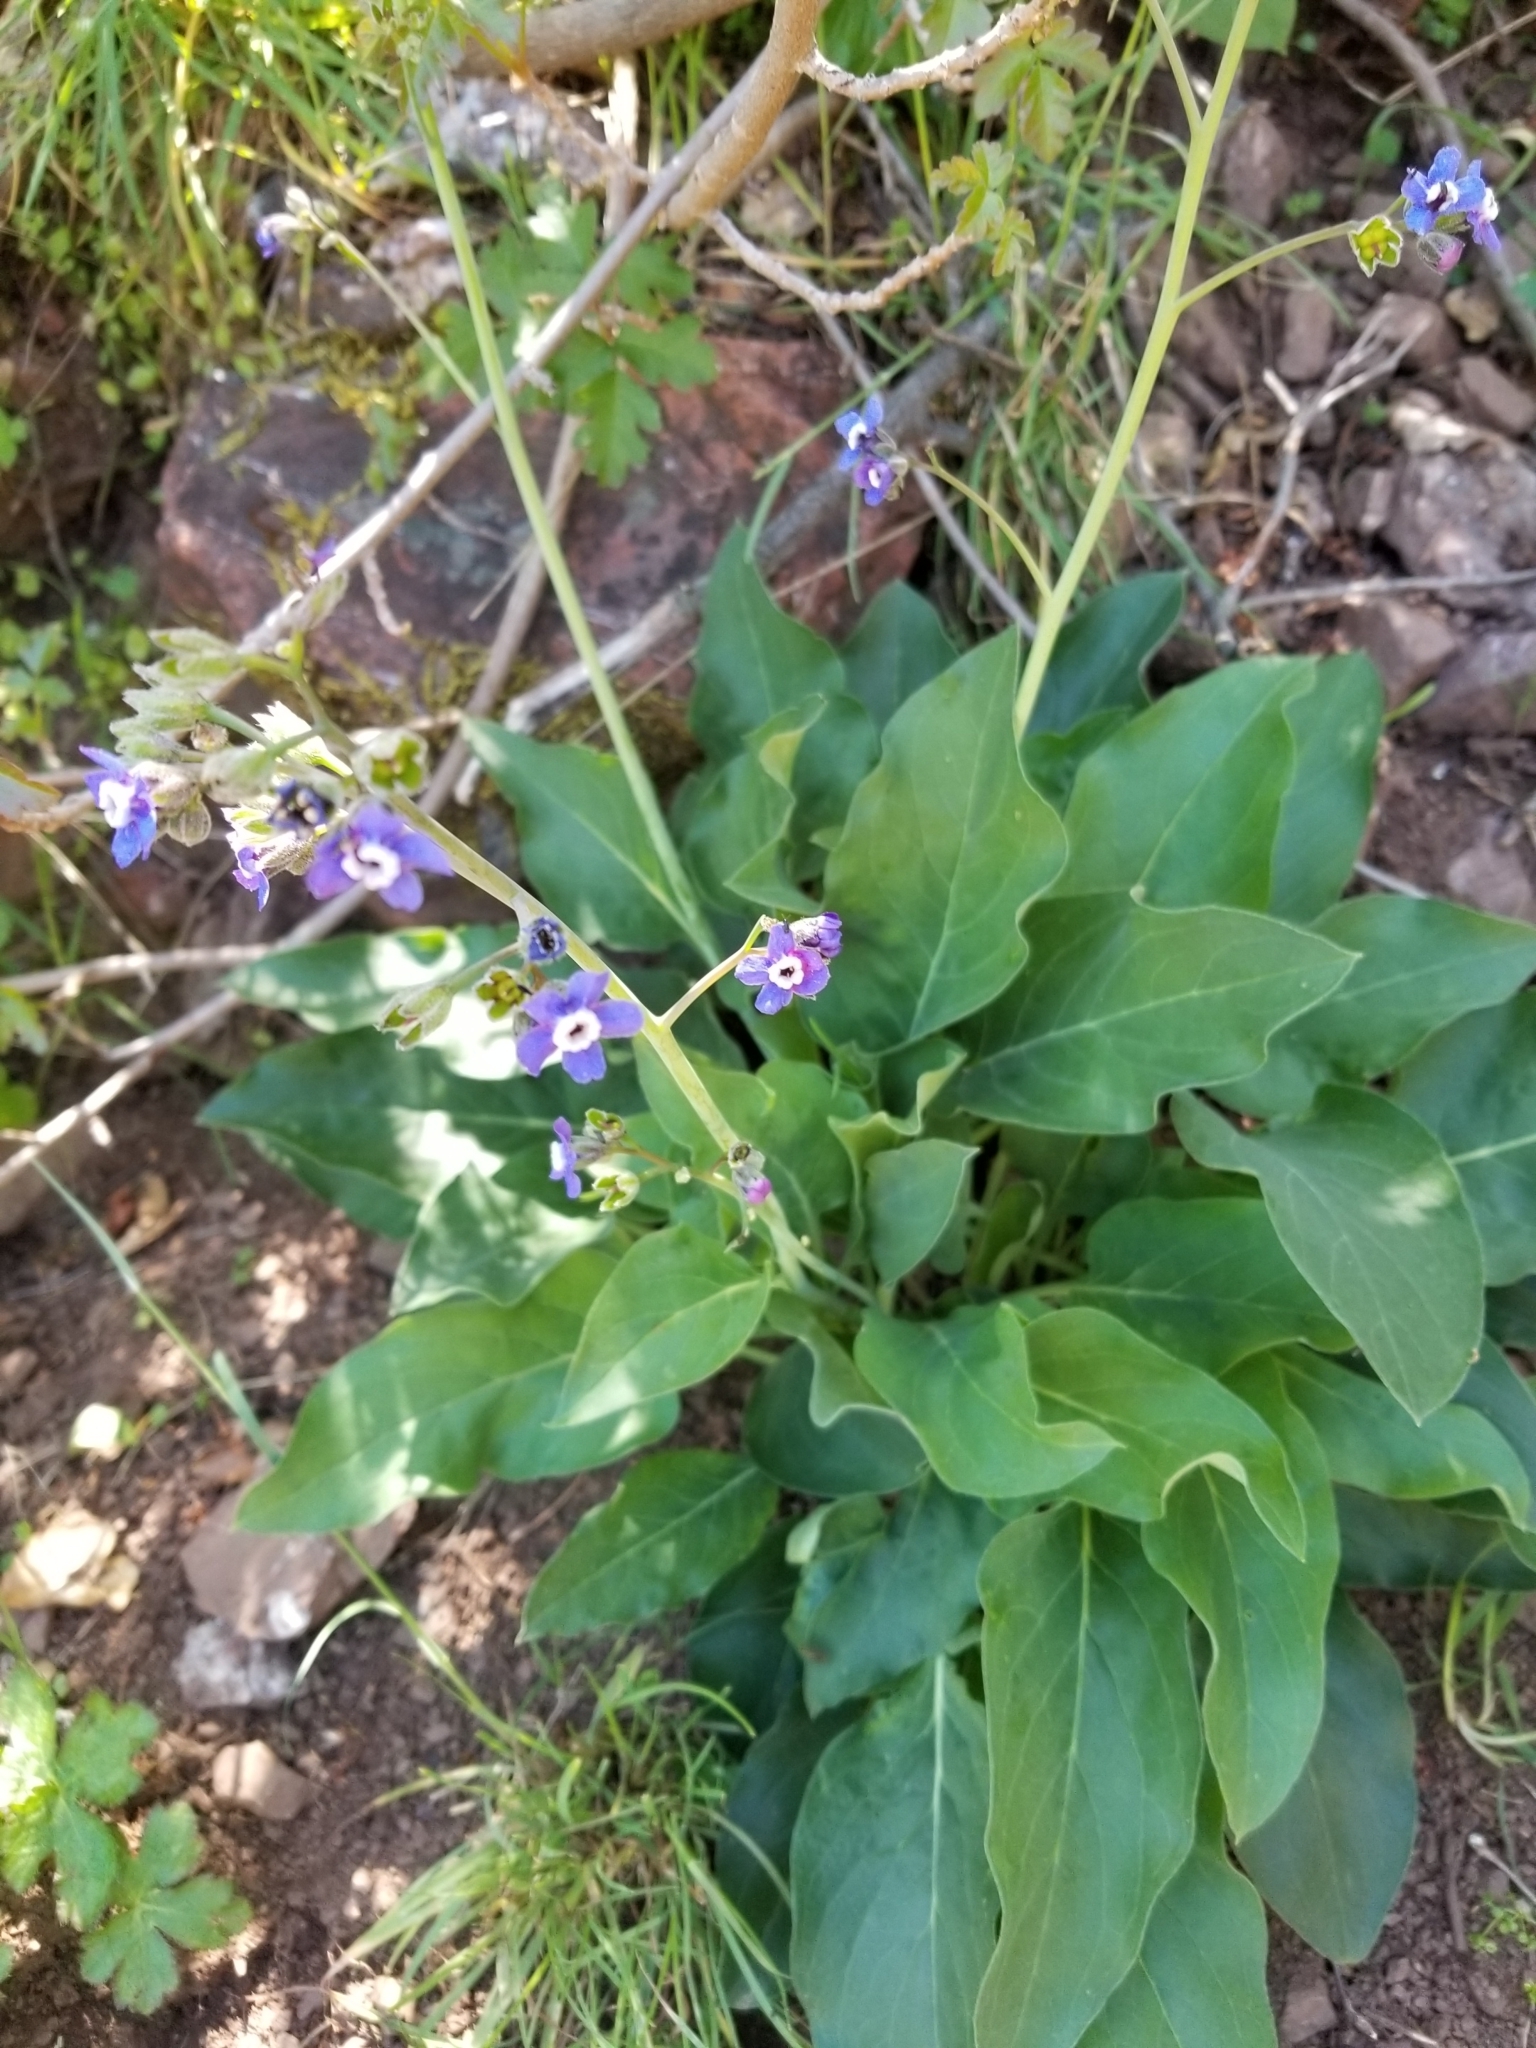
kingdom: Plantae
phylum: Tracheophyta
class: Magnoliopsida
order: Boraginales
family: Boraginaceae
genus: Adelinia
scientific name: Adelinia grande
